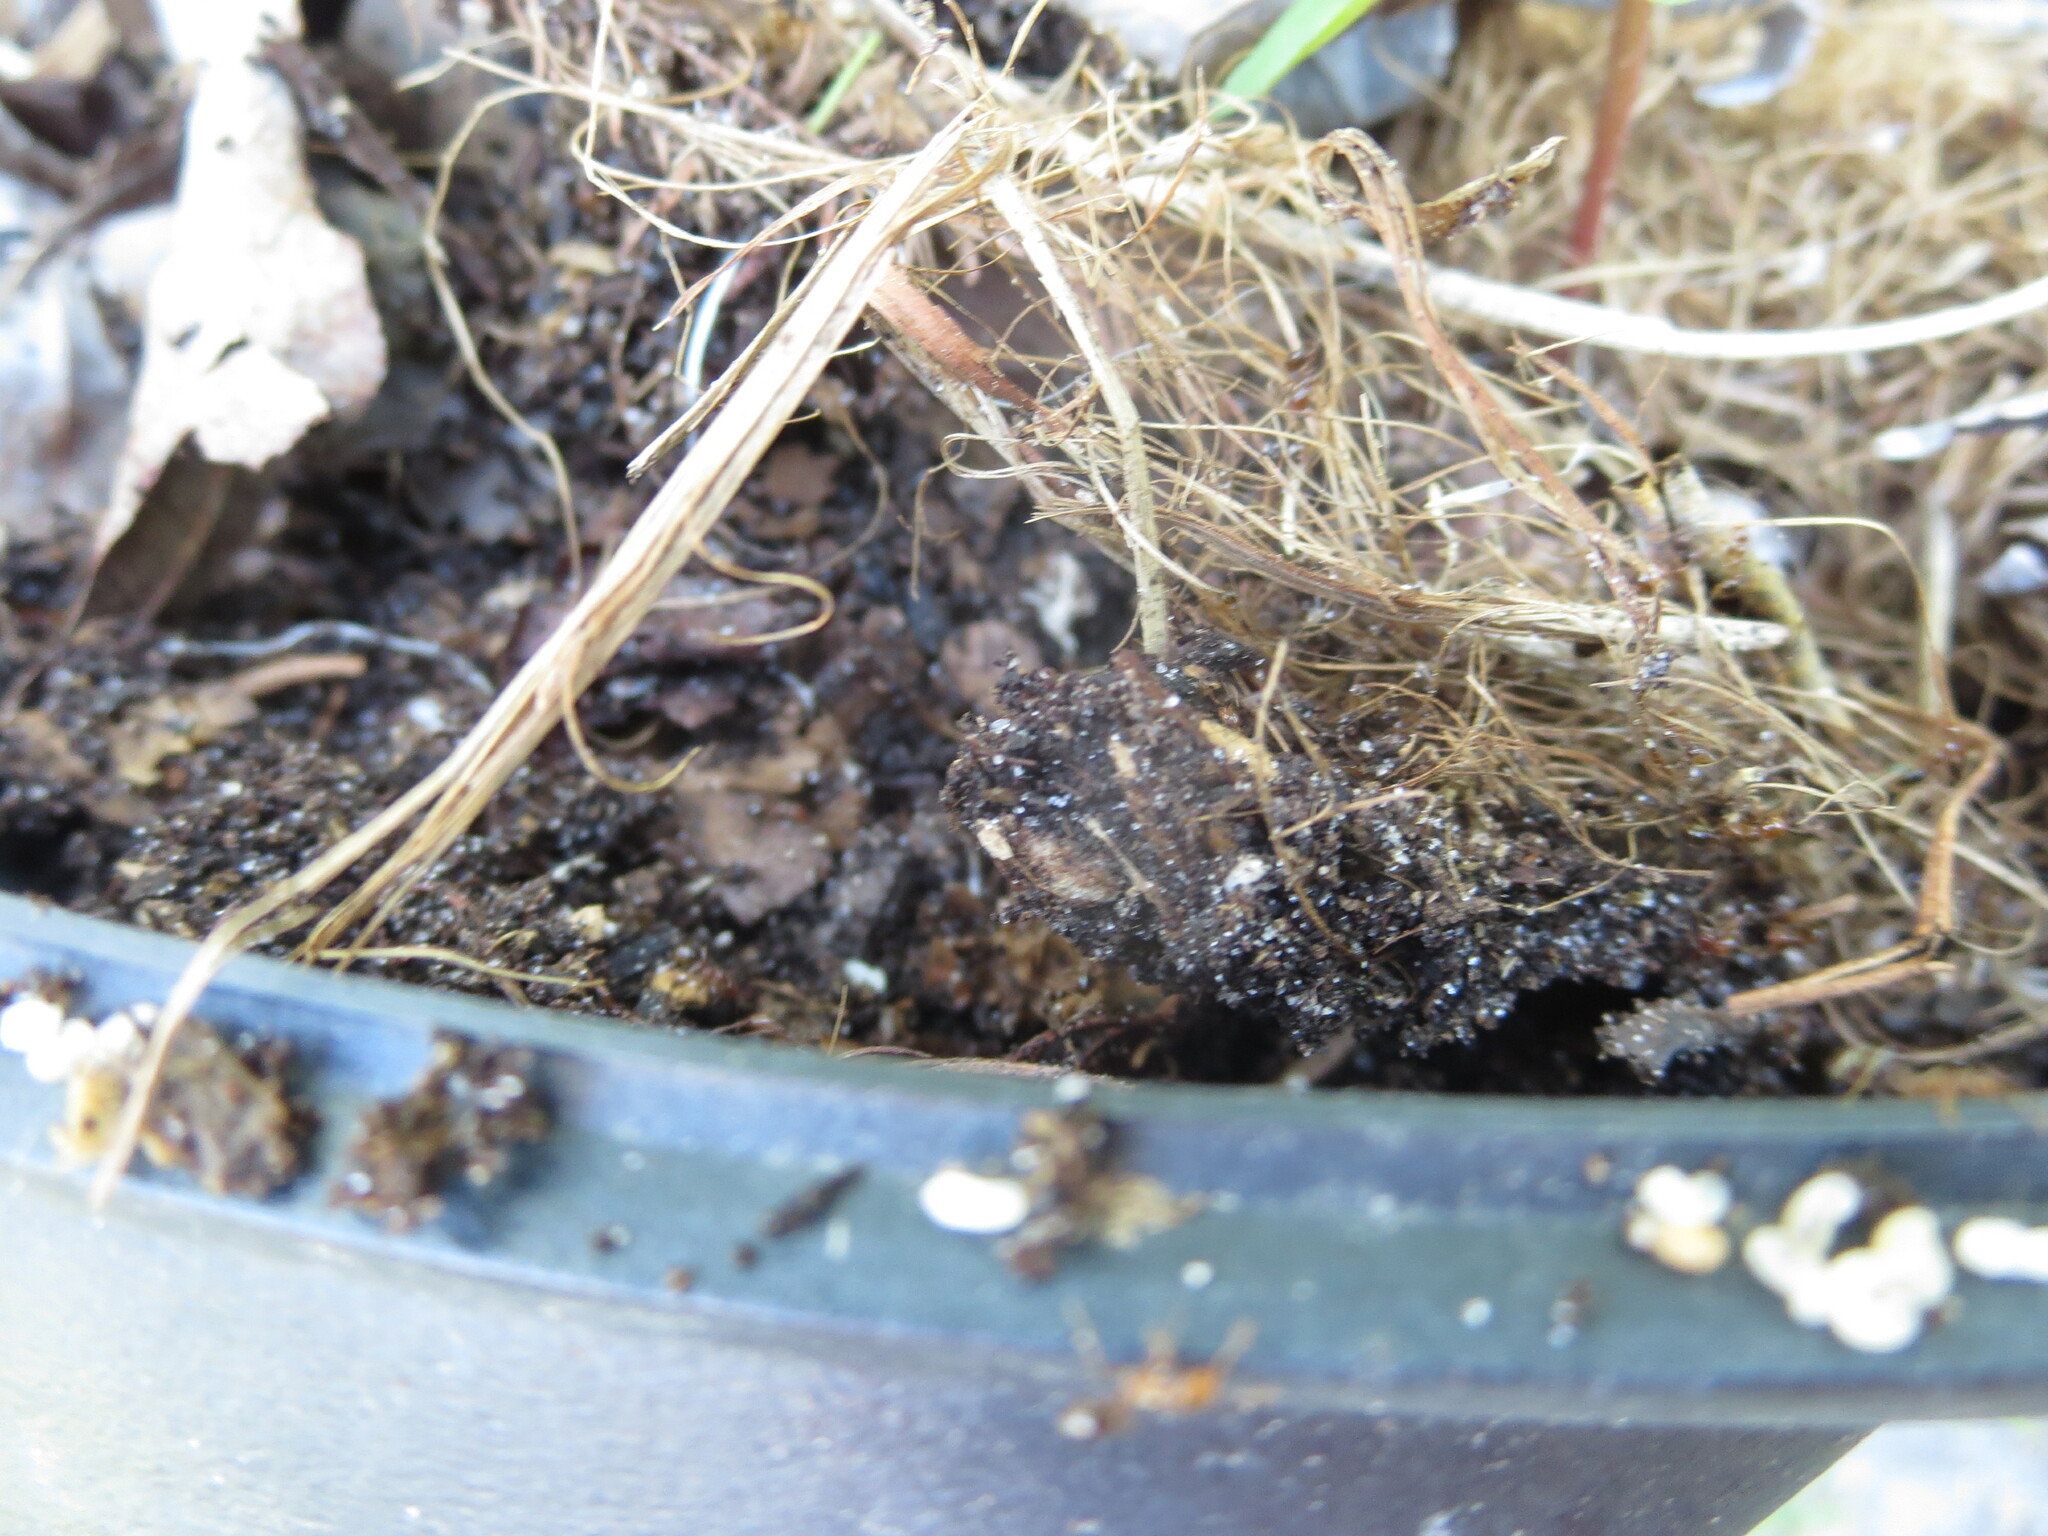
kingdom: Animalia
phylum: Arthropoda
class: Insecta
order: Hymenoptera
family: Formicidae
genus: Solenopsis
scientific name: Solenopsis invicta
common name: Red imported fire ant
